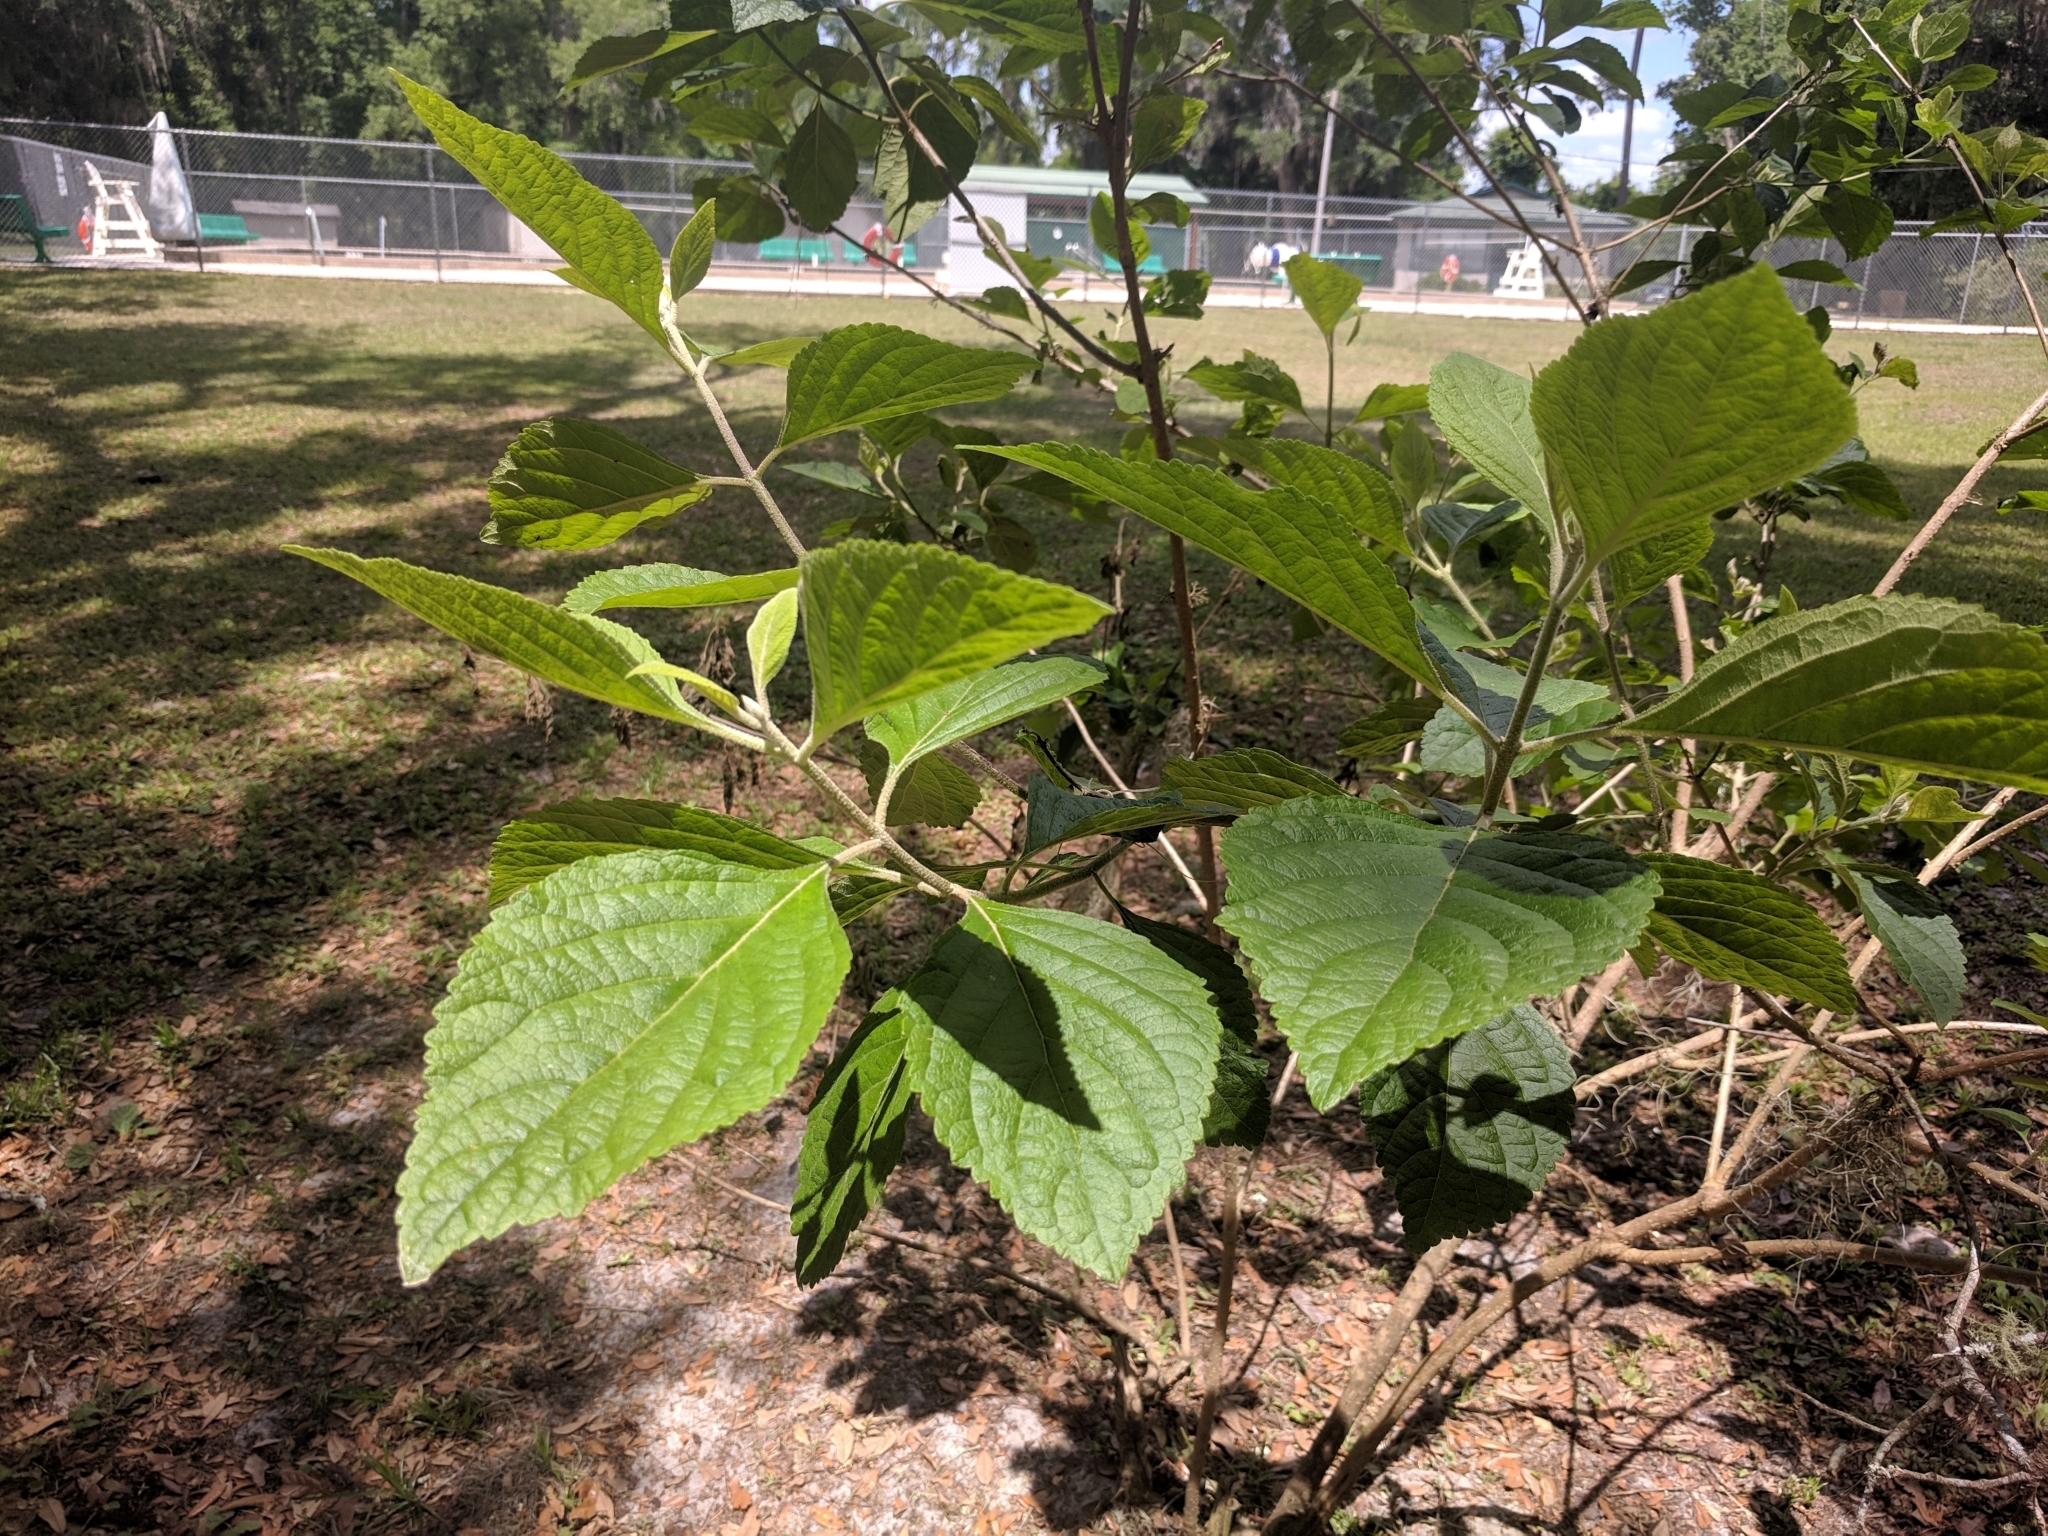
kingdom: Plantae
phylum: Tracheophyta
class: Magnoliopsida
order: Lamiales
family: Lamiaceae
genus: Callicarpa
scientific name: Callicarpa americana
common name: American beautyberry
